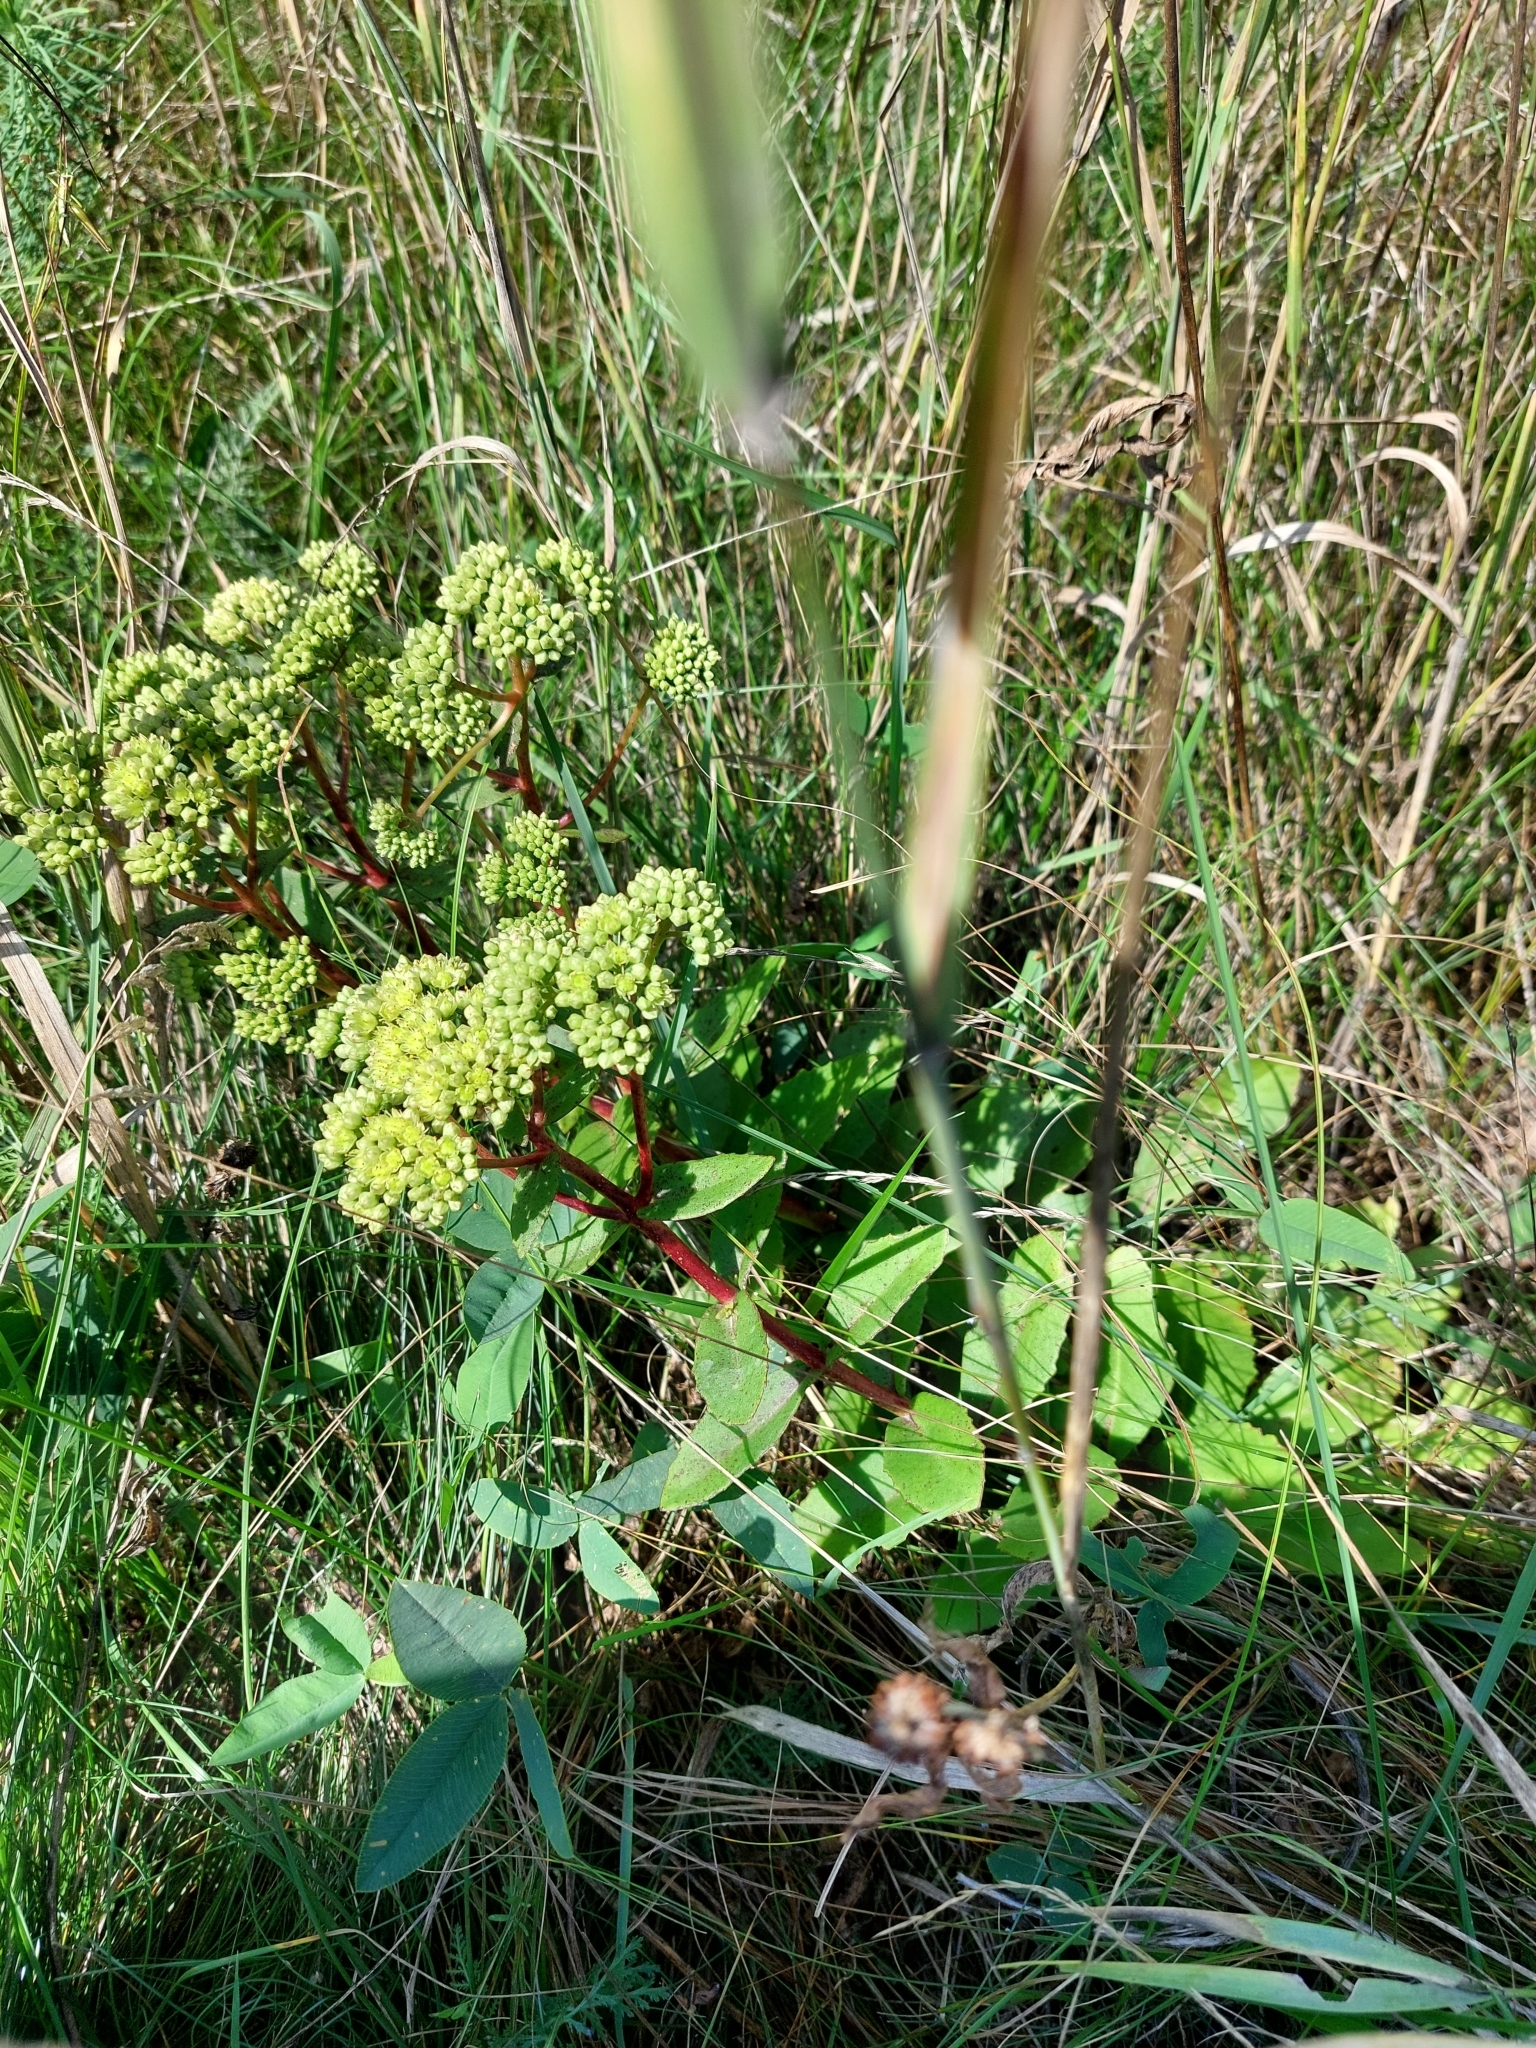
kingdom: Plantae
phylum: Tracheophyta
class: Magnoliopsida
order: Saxifragales
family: Crassulaceae
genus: Hylotelephium
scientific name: Hylotelephium maximum
